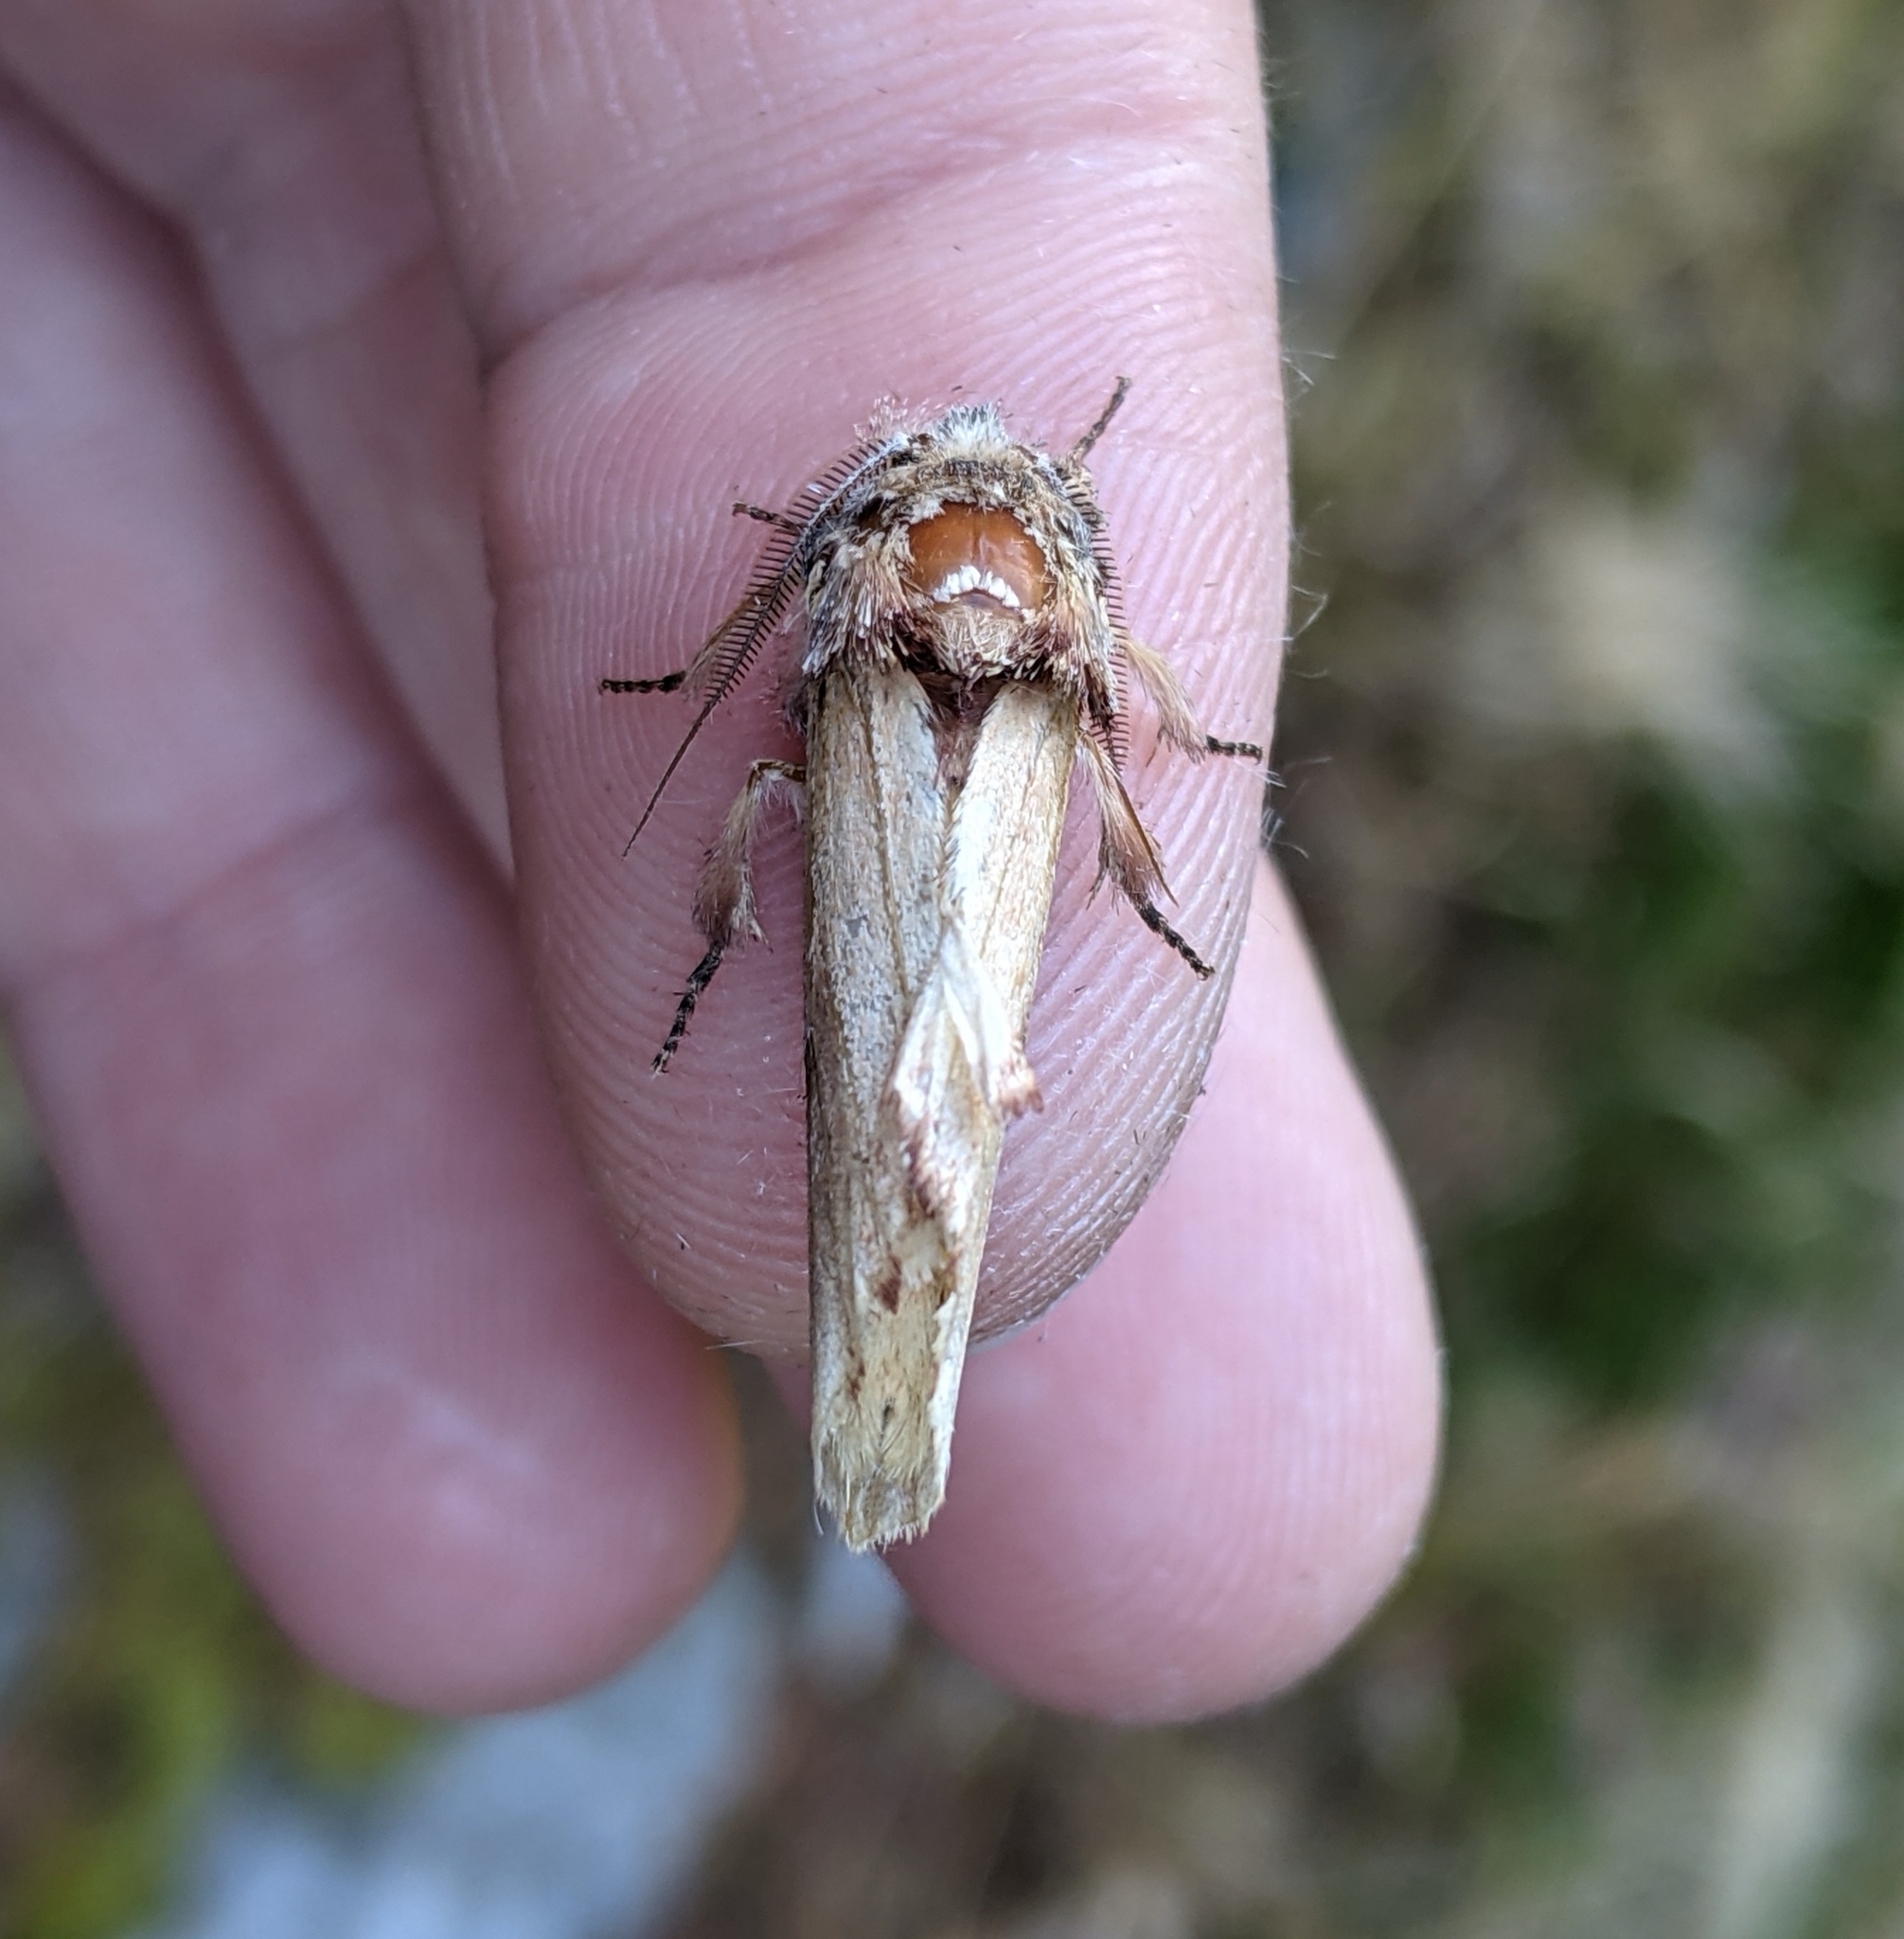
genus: Ianassa
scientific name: Ianassa
